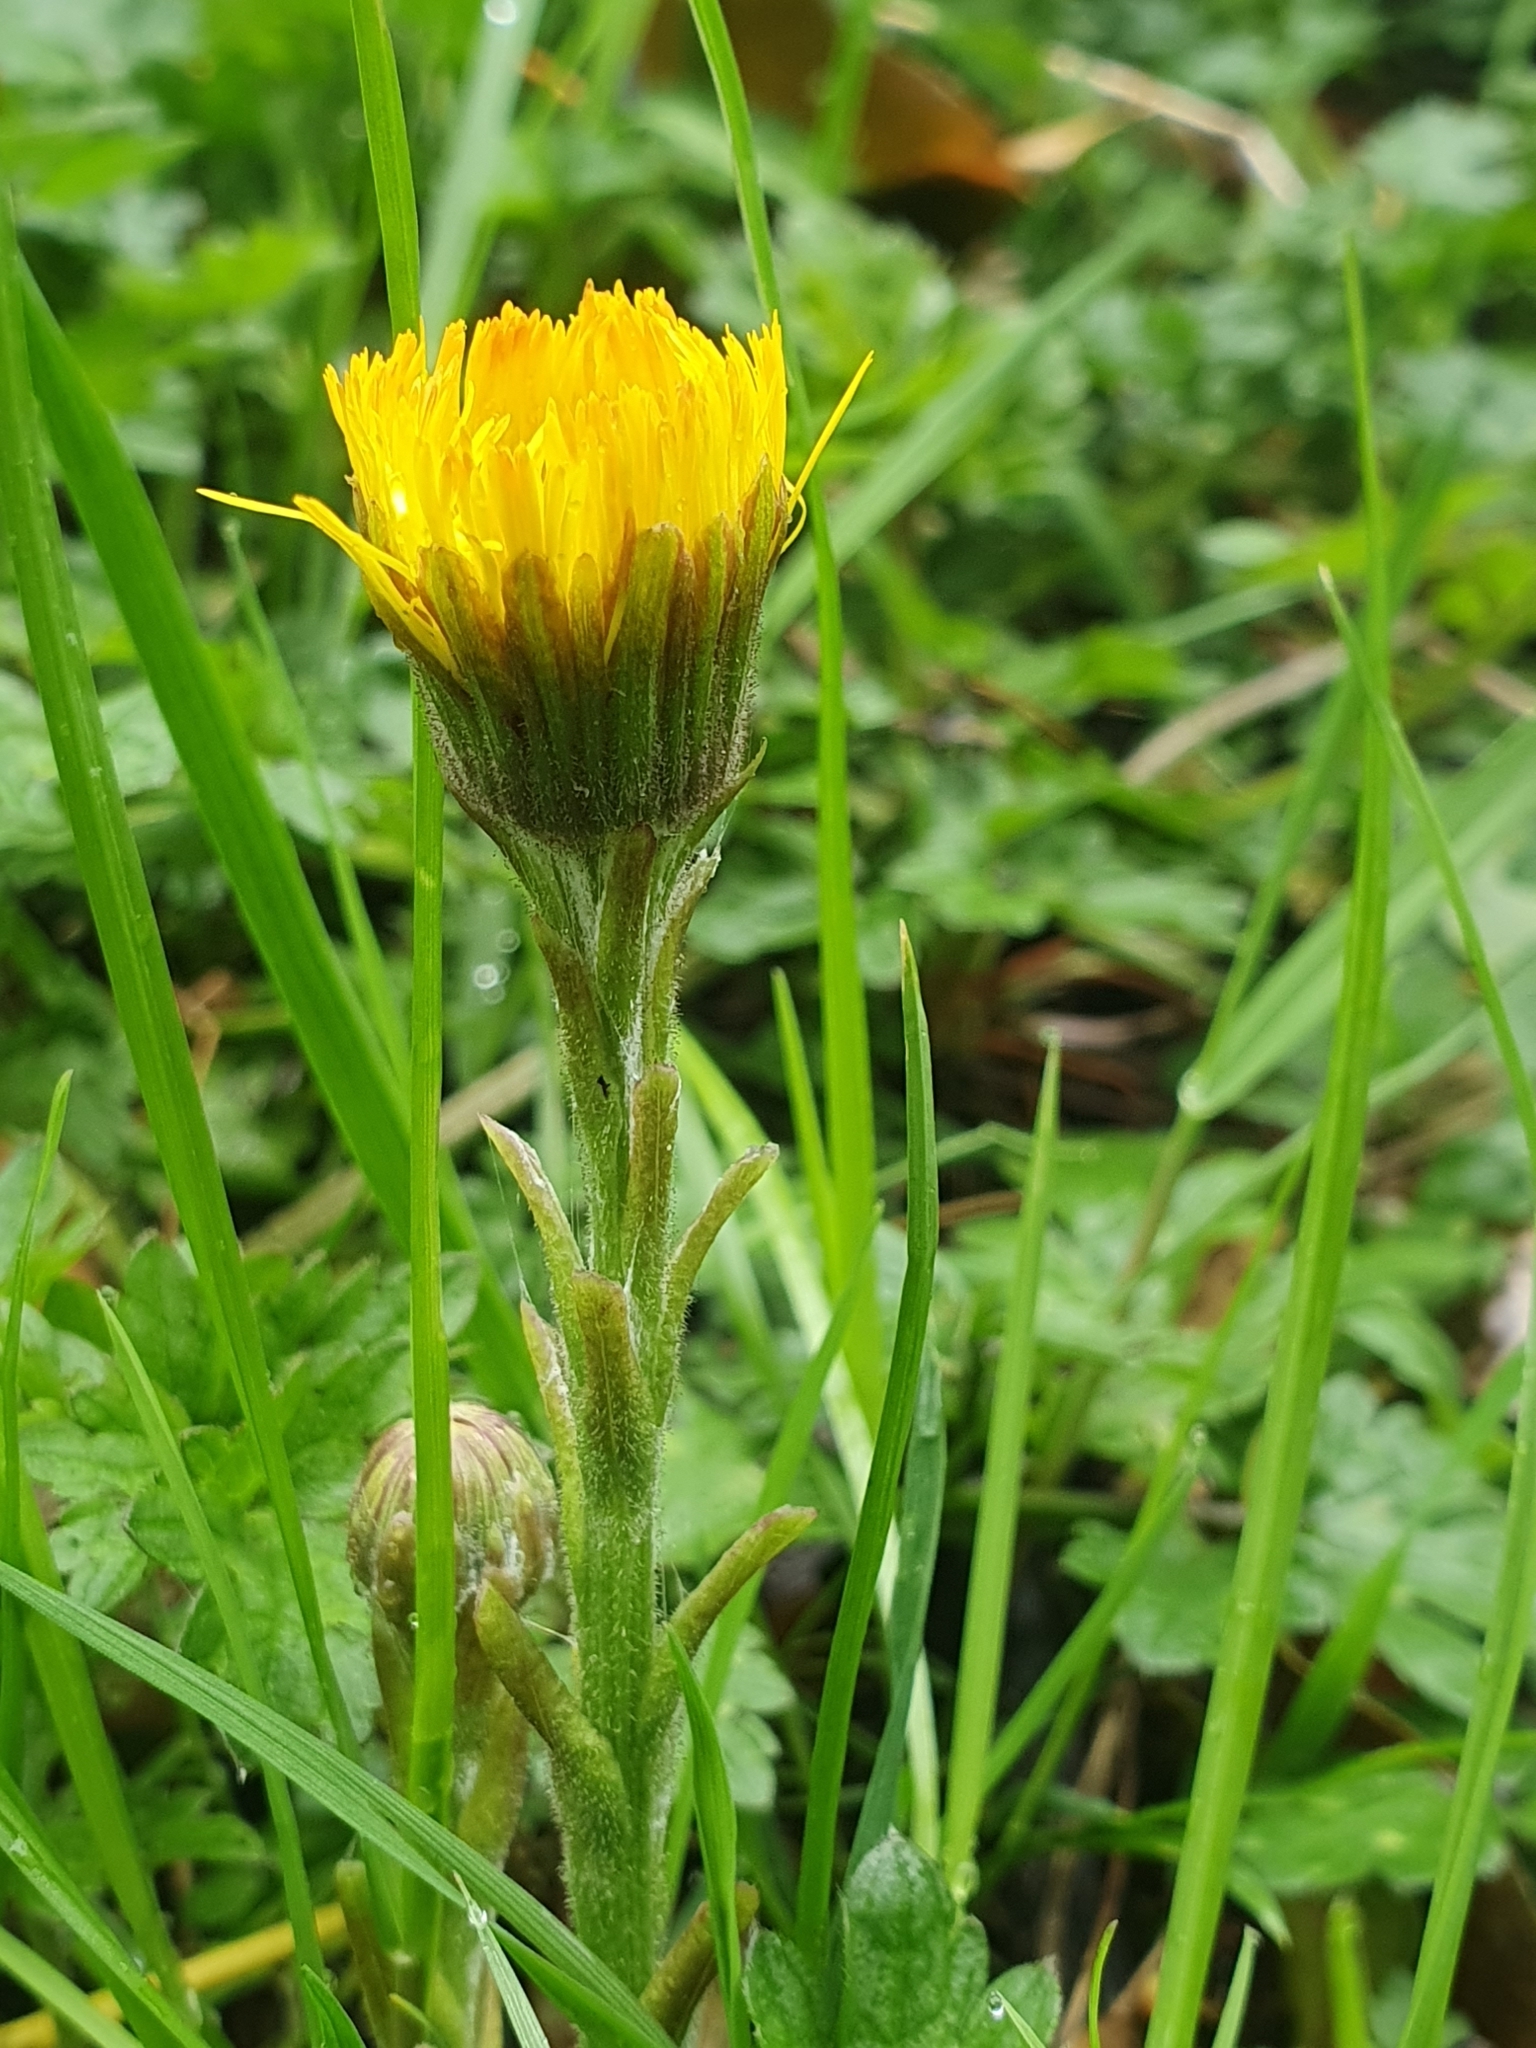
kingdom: Plantae
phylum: Tracheophyta
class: Magnoliopsida
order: Asterales
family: Asteraceae
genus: Tussilago
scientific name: Tussilago farfara
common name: Coltsfoot
